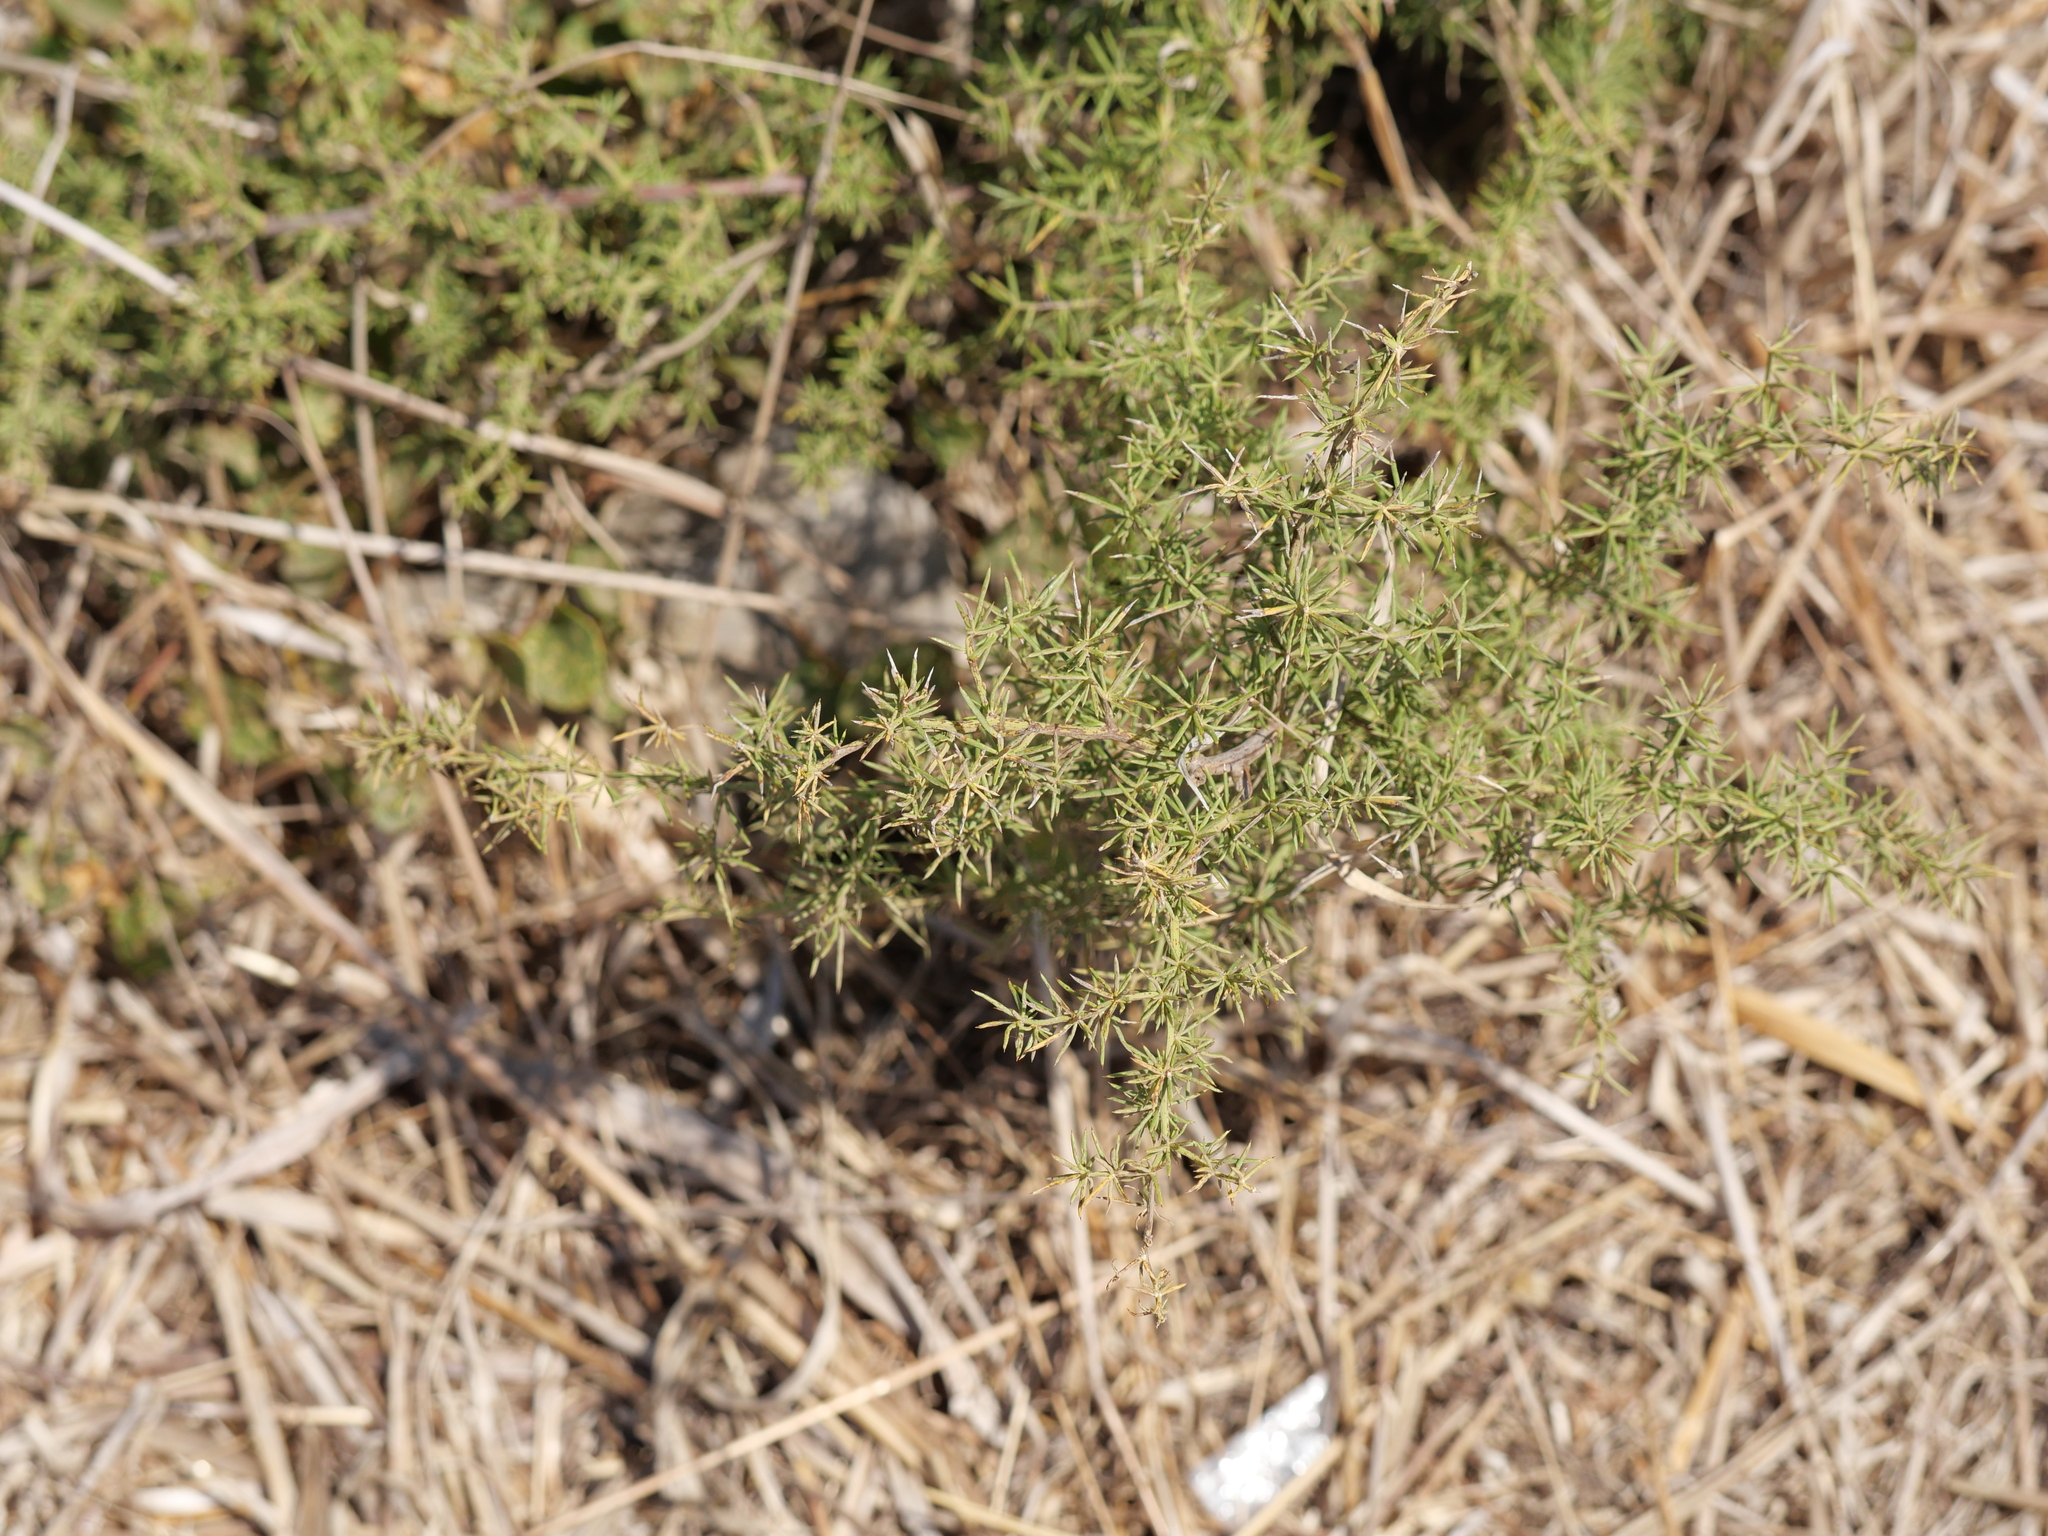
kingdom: Plantae
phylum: Tracheophyta
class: Liliopsida
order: Asparagales
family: Asparagaceae
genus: Asparagus
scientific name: Asparagus acutifolius
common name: Wild asparagus
